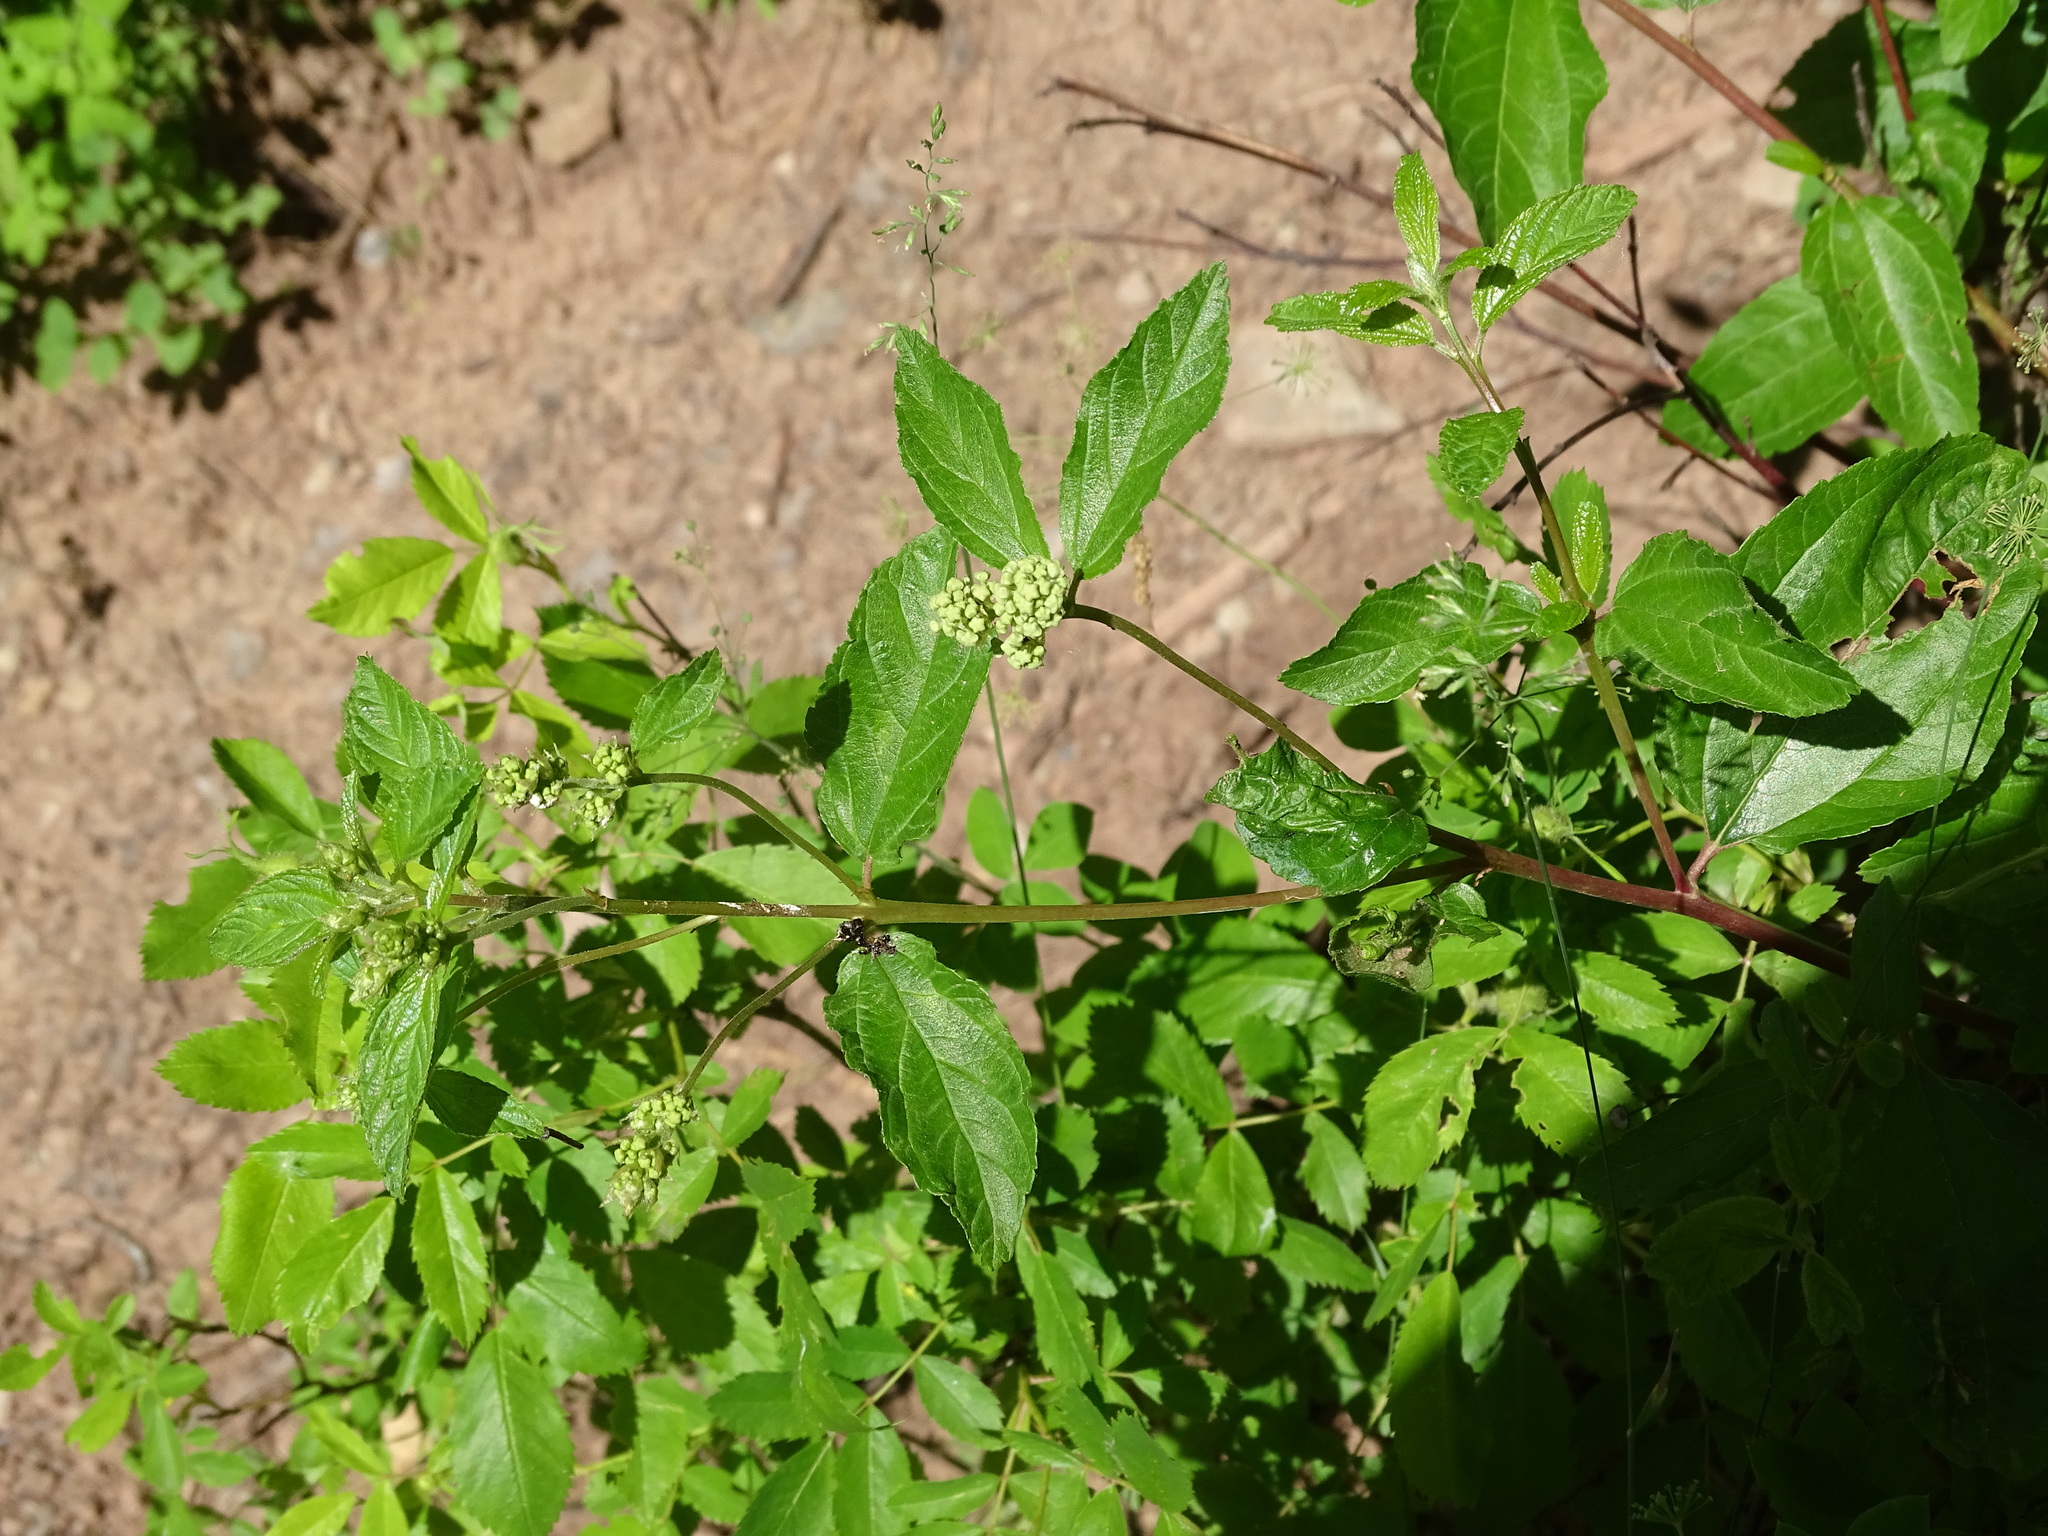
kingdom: Plantae
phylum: Tracheophyta
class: Magnoliopsida
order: Rosales
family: Rhamnaceae
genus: Ceanothus
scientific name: Ceanothus americanus
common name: Redroot
